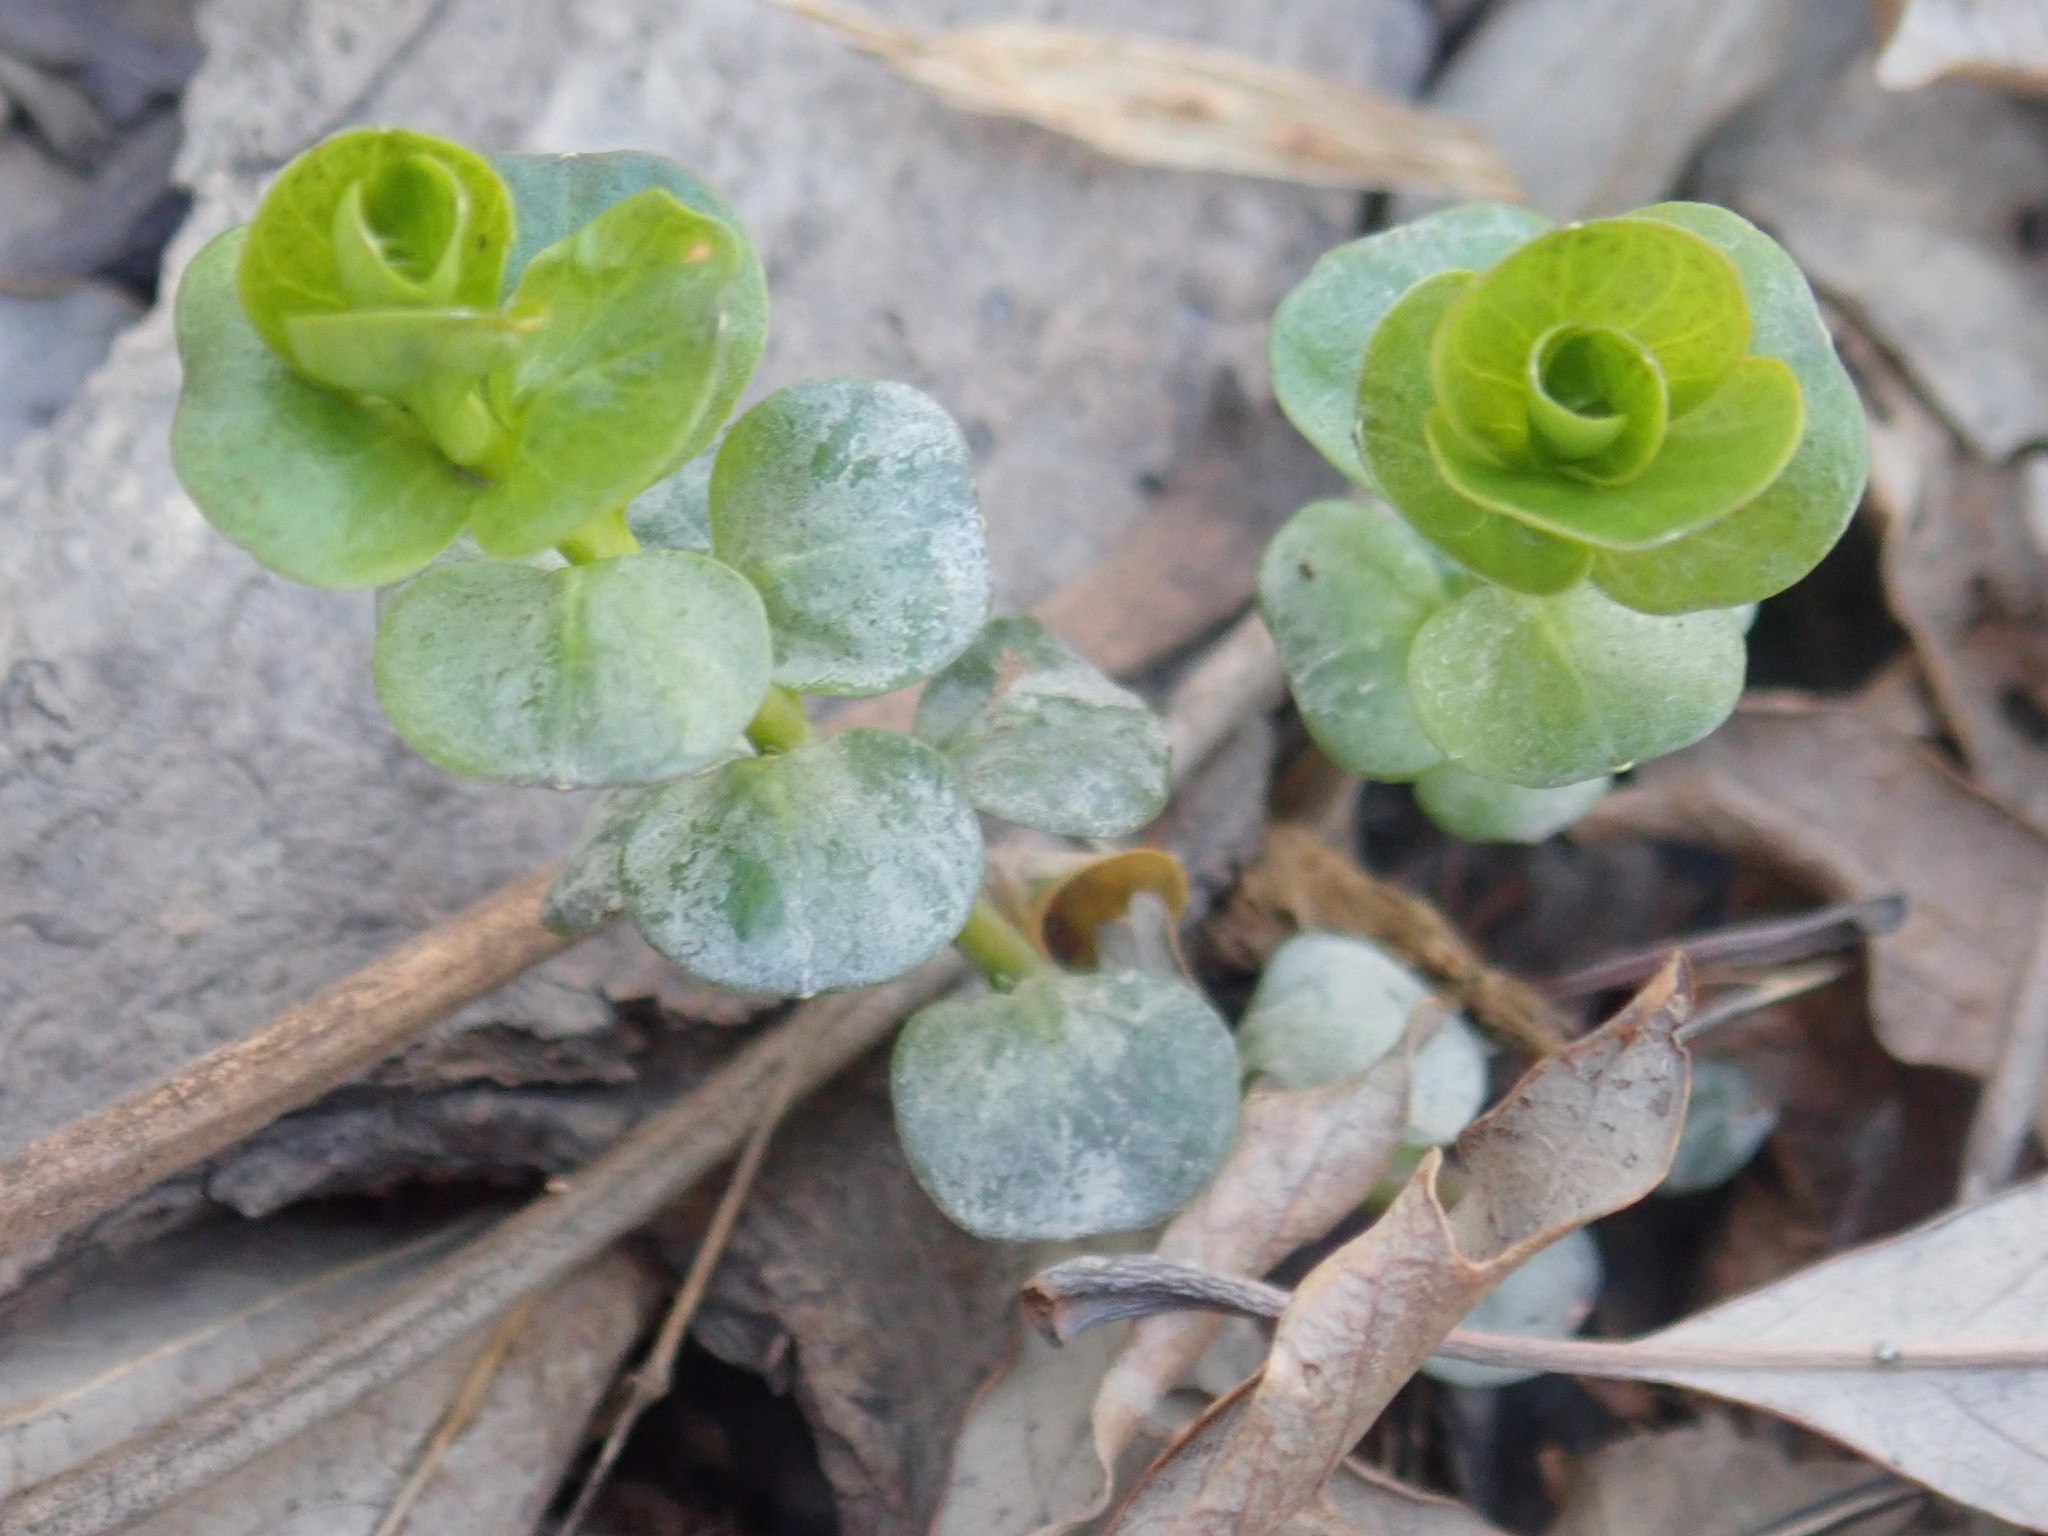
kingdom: Plantae
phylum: Tracheophyta
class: Magnoliopsida
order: Ericales
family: Primulaceae
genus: Lysimachia
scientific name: Lysimachia nummularia
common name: Moneywort
